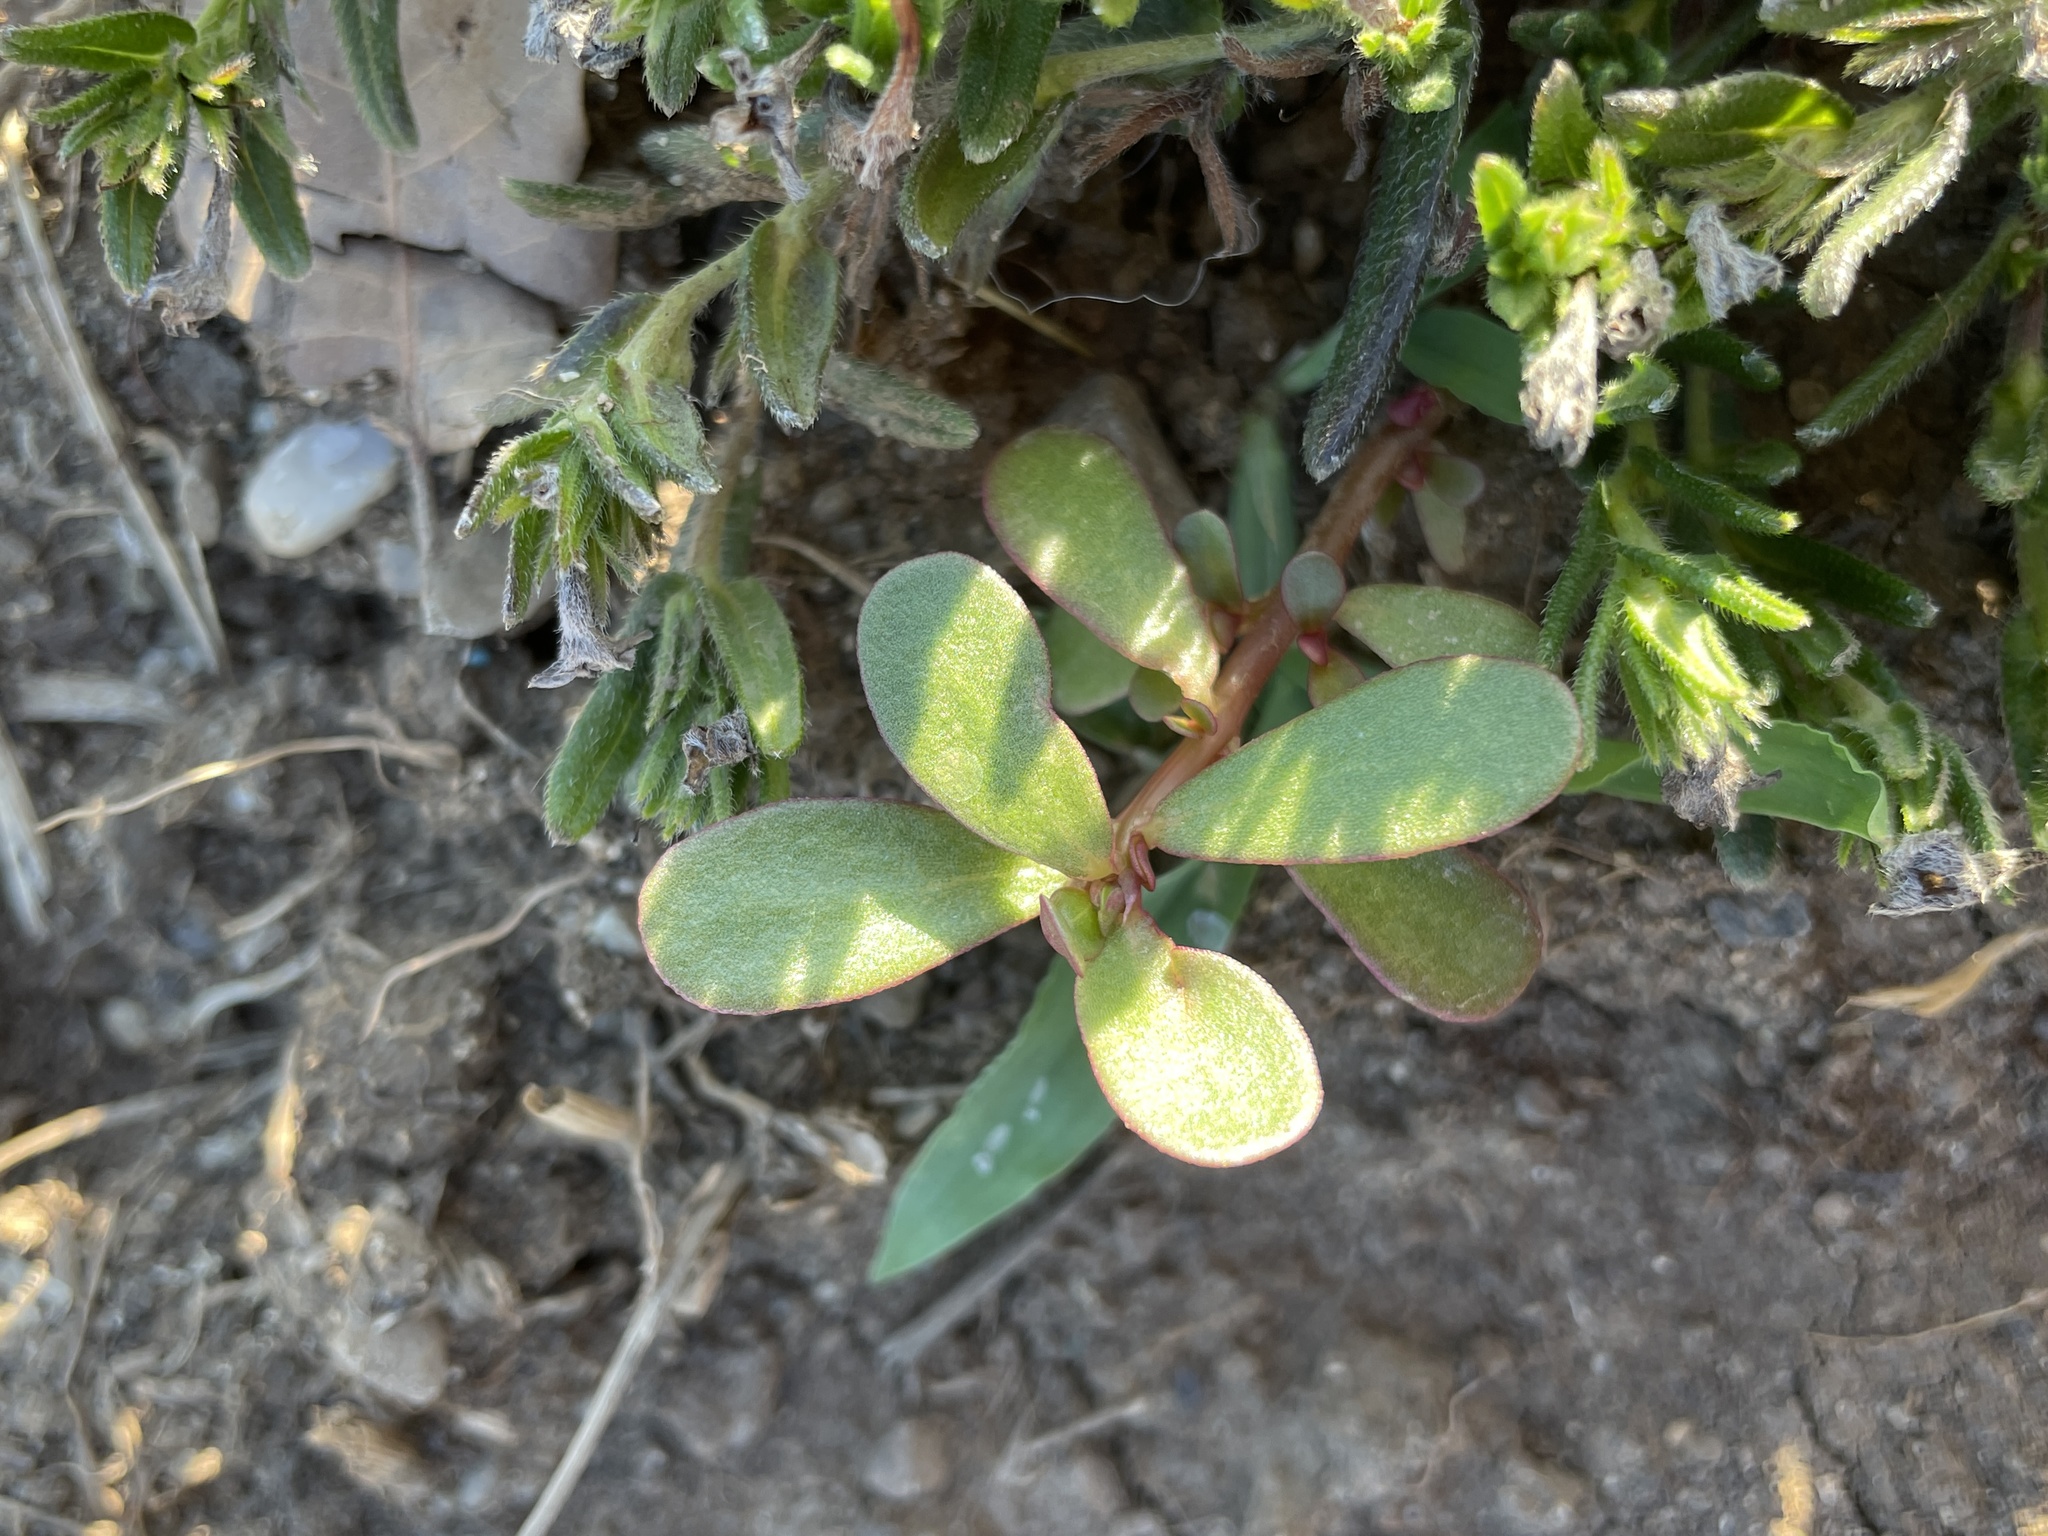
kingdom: Plantae
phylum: Tracheophyta
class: Magnoliopsida
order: Caryophyllales
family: Portulacaceae
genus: Portulaca
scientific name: Portulaca oleracea
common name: Common purslane
